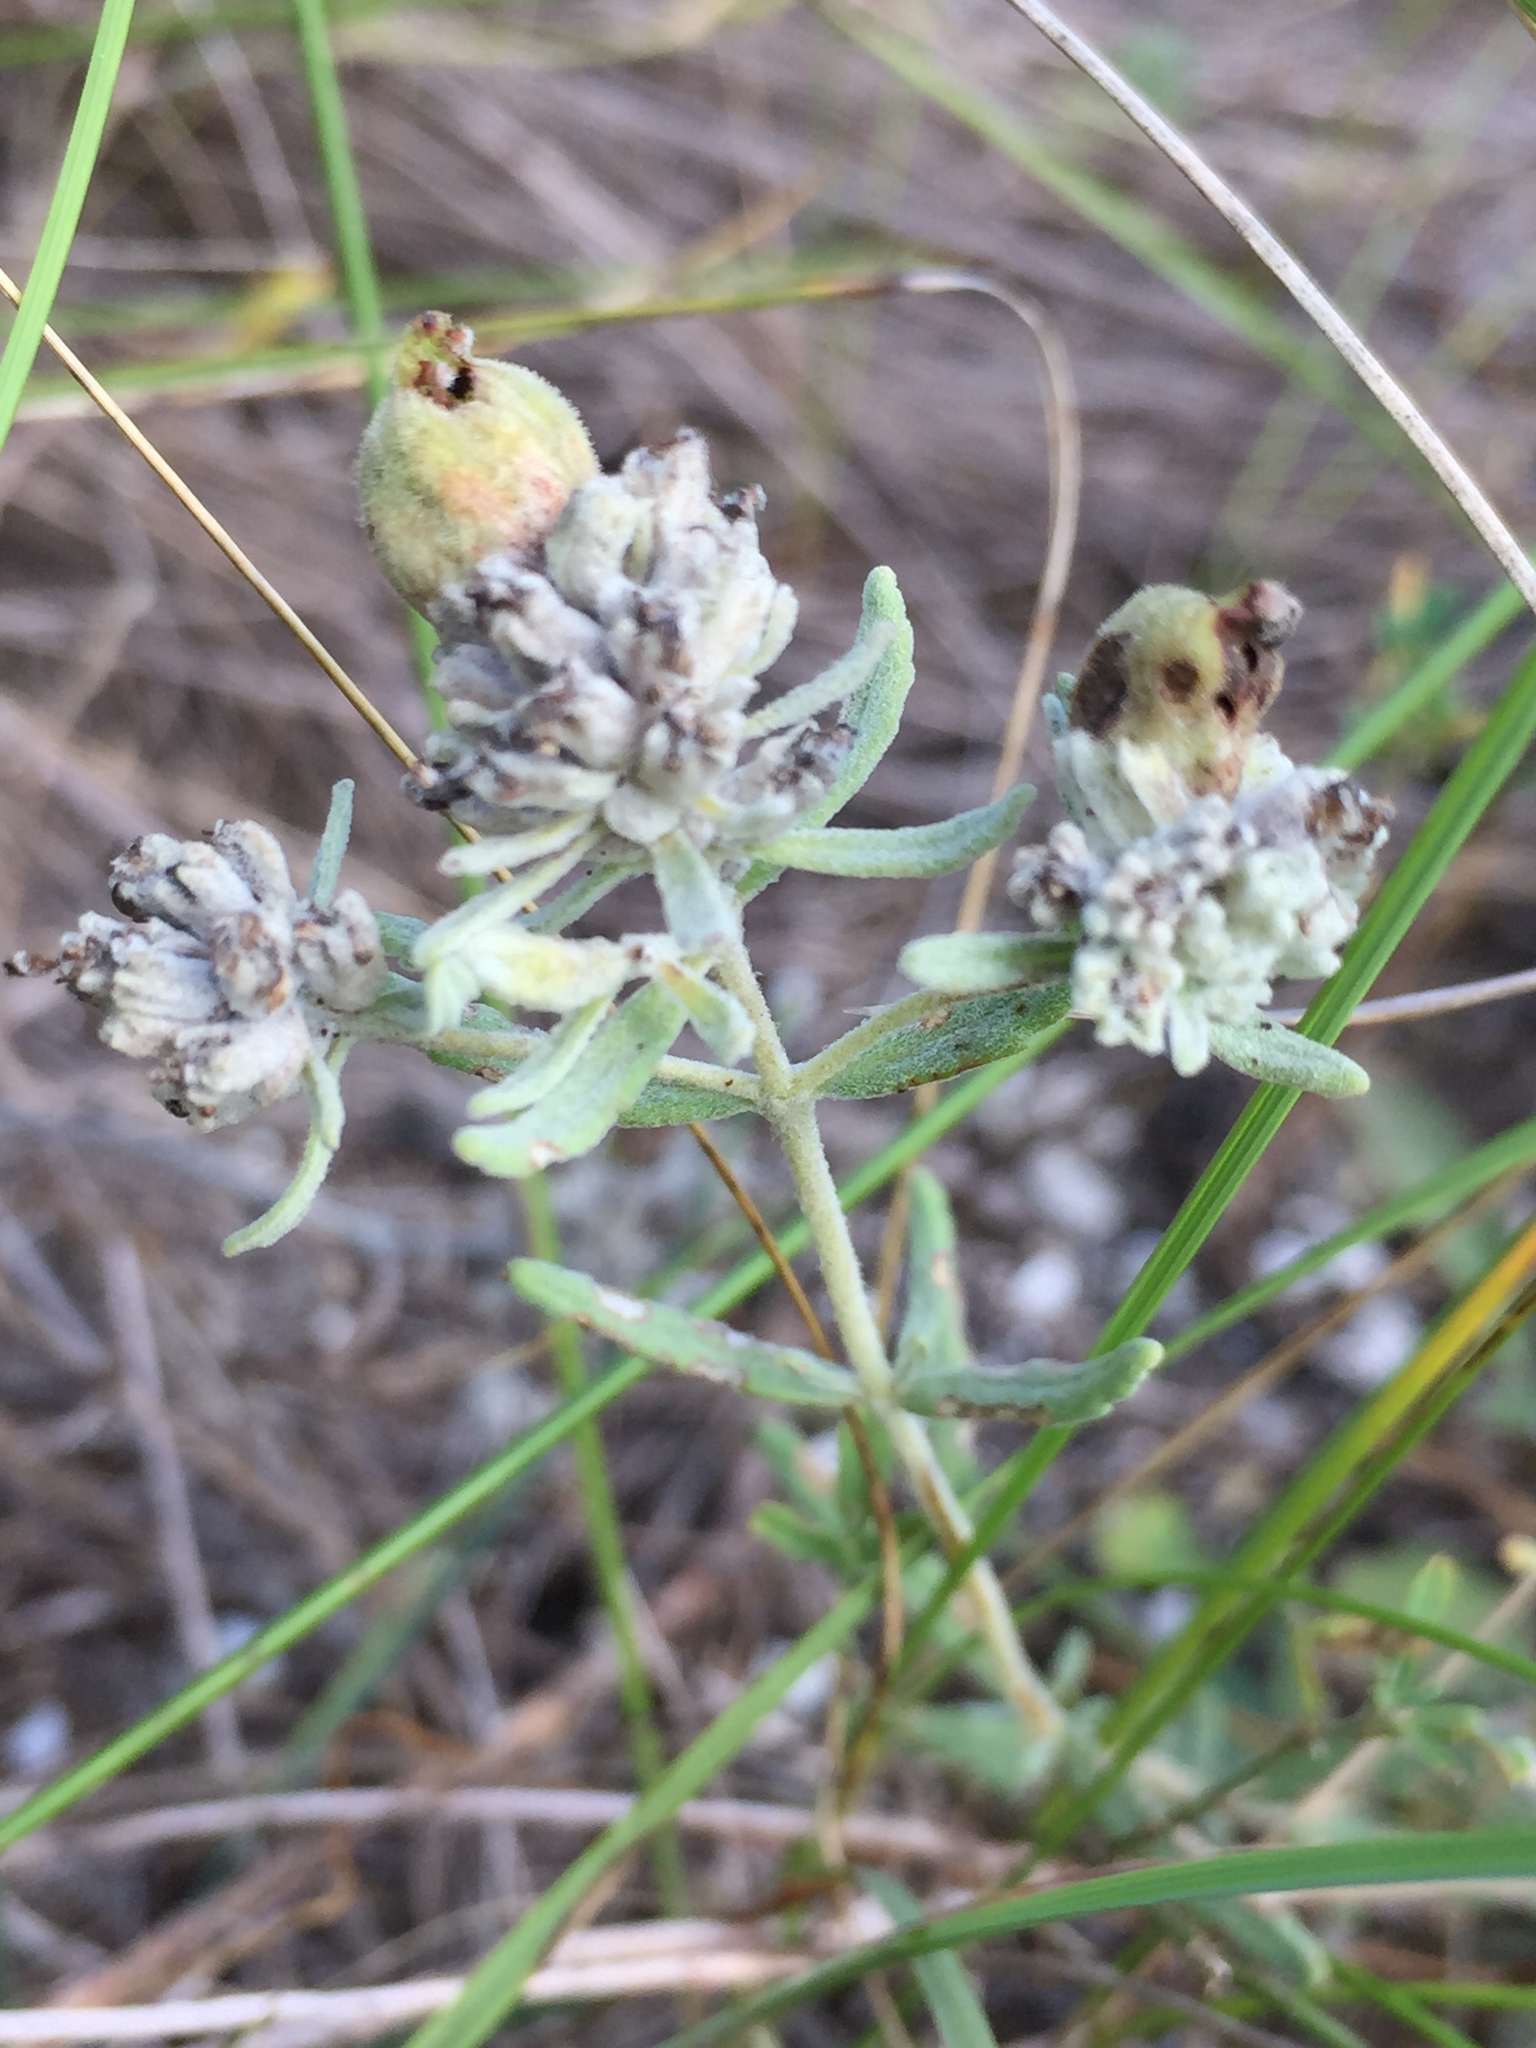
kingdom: Plantae
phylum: Tracheophyta
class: Magnoliopsida
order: Lamiales
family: Lamiaceae
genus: Teucrium
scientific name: Teucrium polium
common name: Poley
